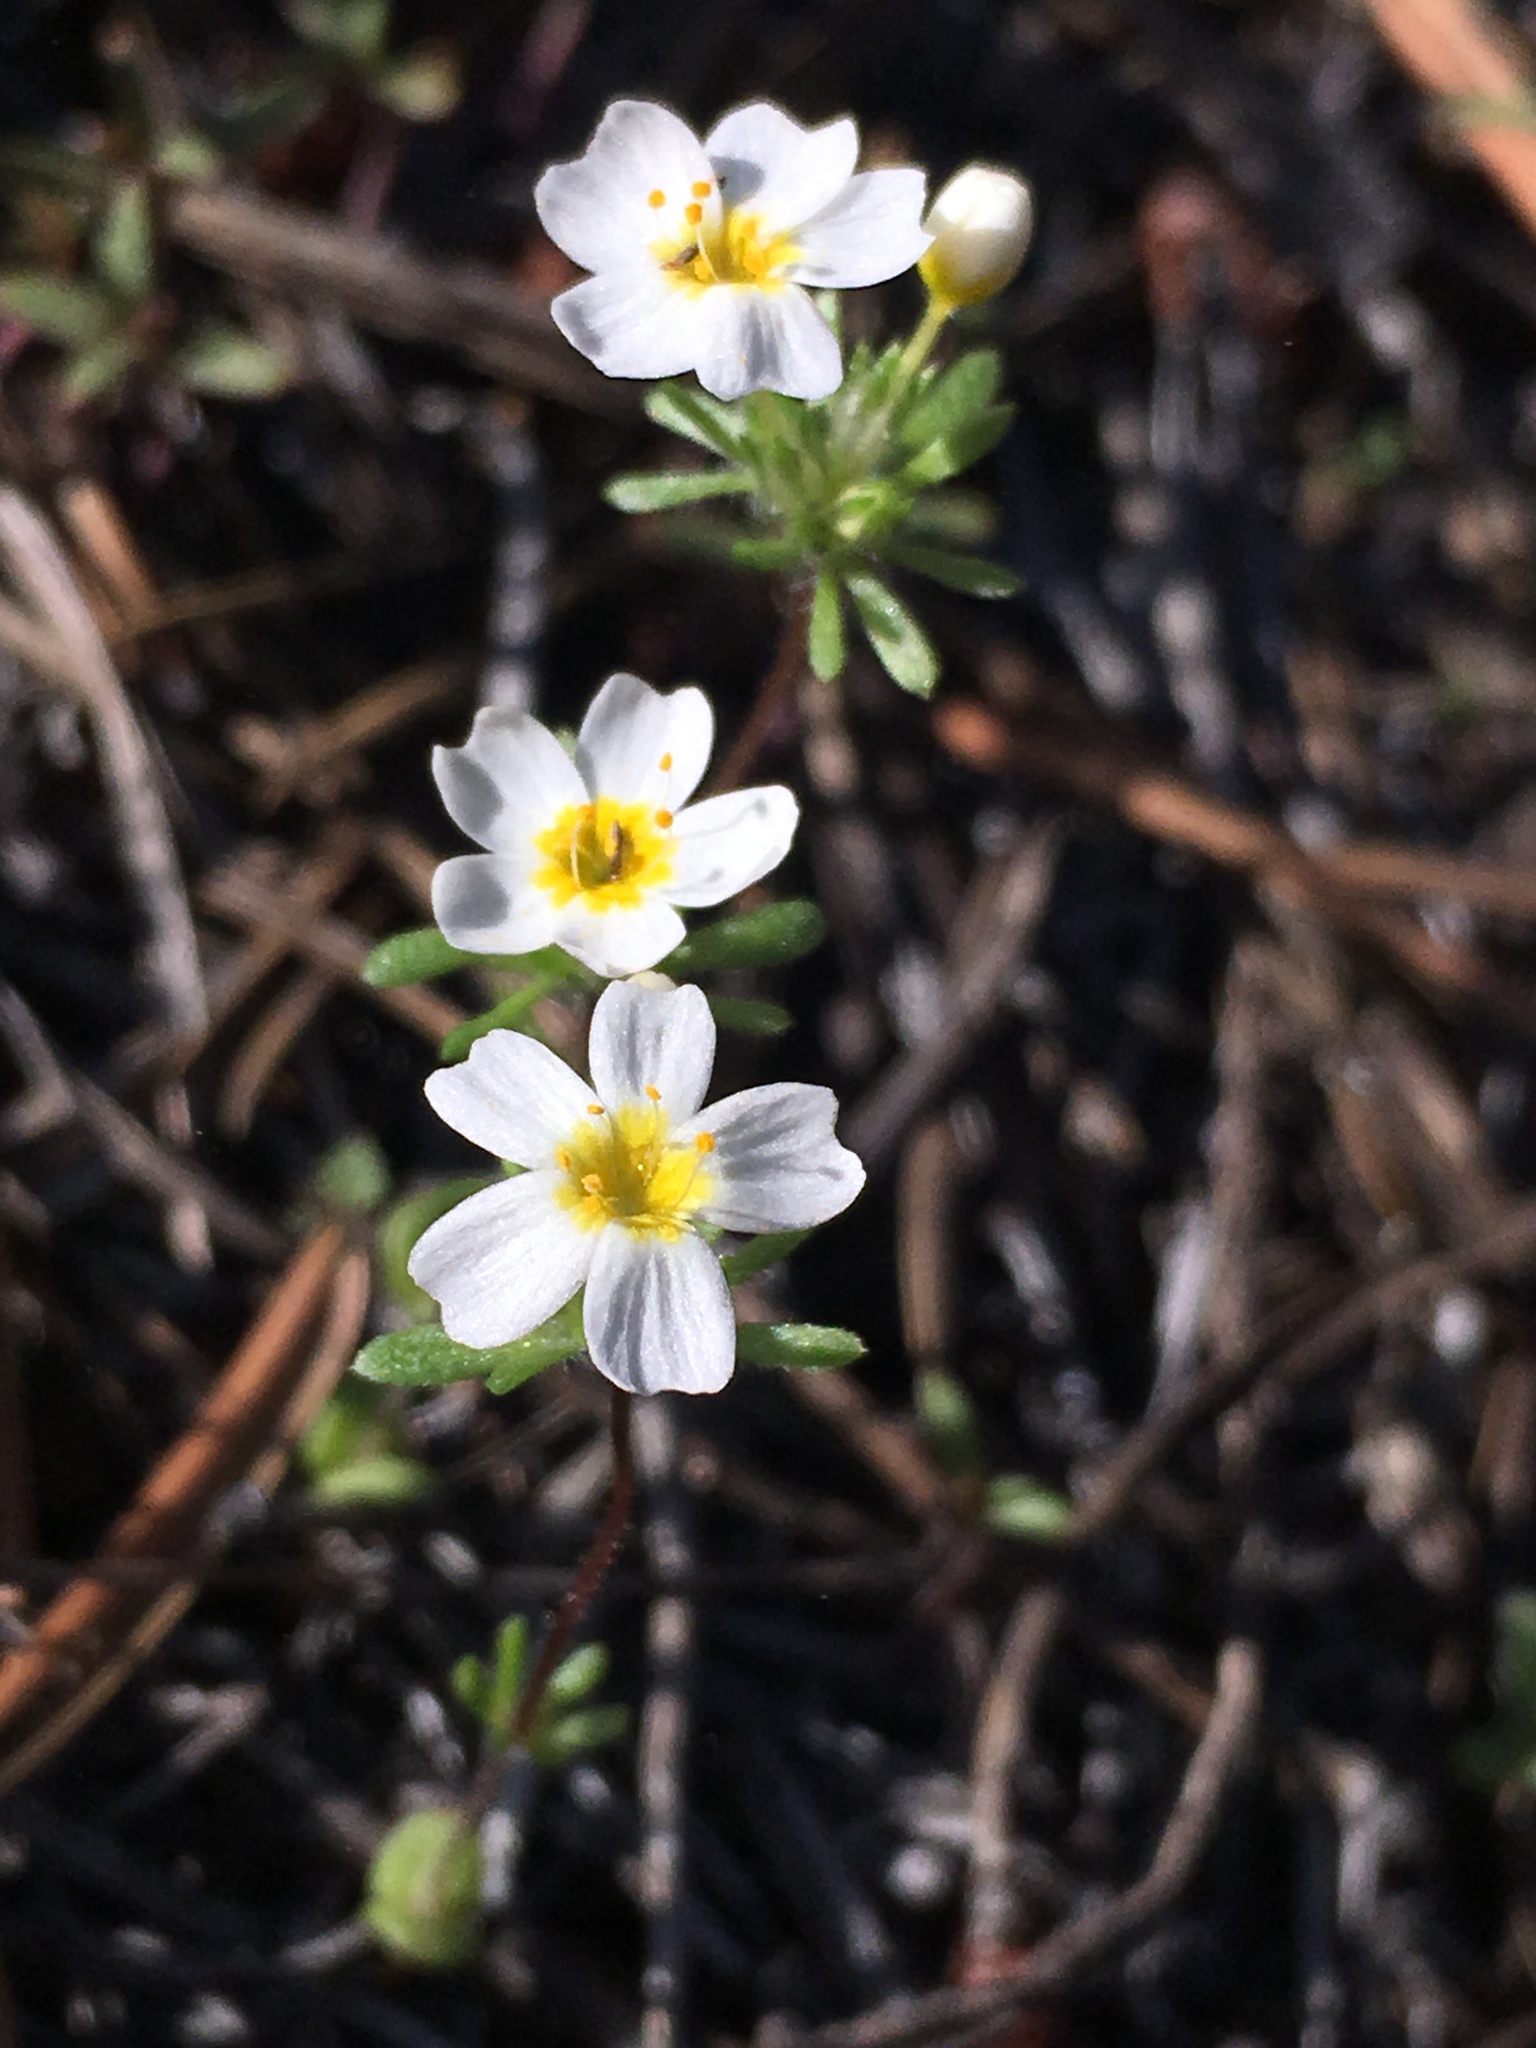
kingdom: Plantae
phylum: Tracheophyta
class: Magnoliopsida
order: Ericales
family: Polemoniaceae
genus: Leptosiphon
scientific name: Leptosiphon oblanceolatus
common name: Sierra nevada linanthus
